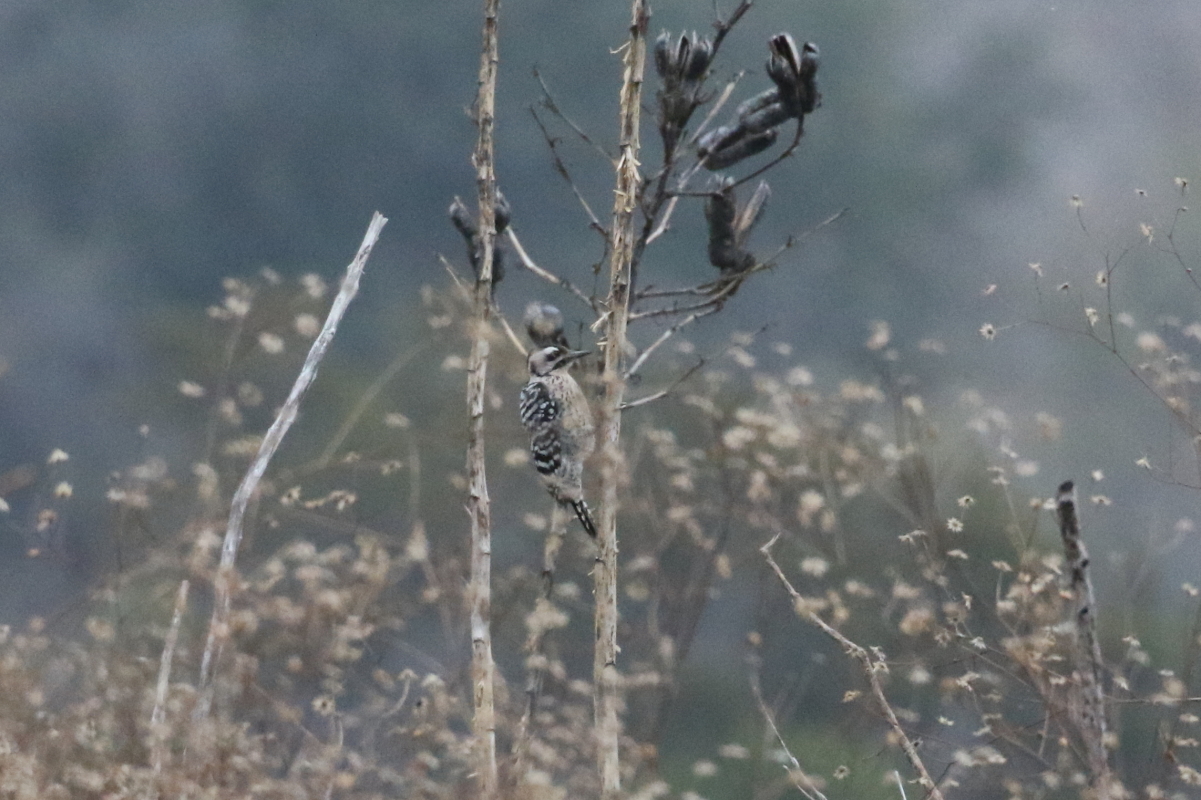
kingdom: Animalia
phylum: Chordata
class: Aves
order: Piciformes
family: Picidae
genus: Dryobates
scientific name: Dryobates scalaris
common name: Ladder-backed woodpecker
